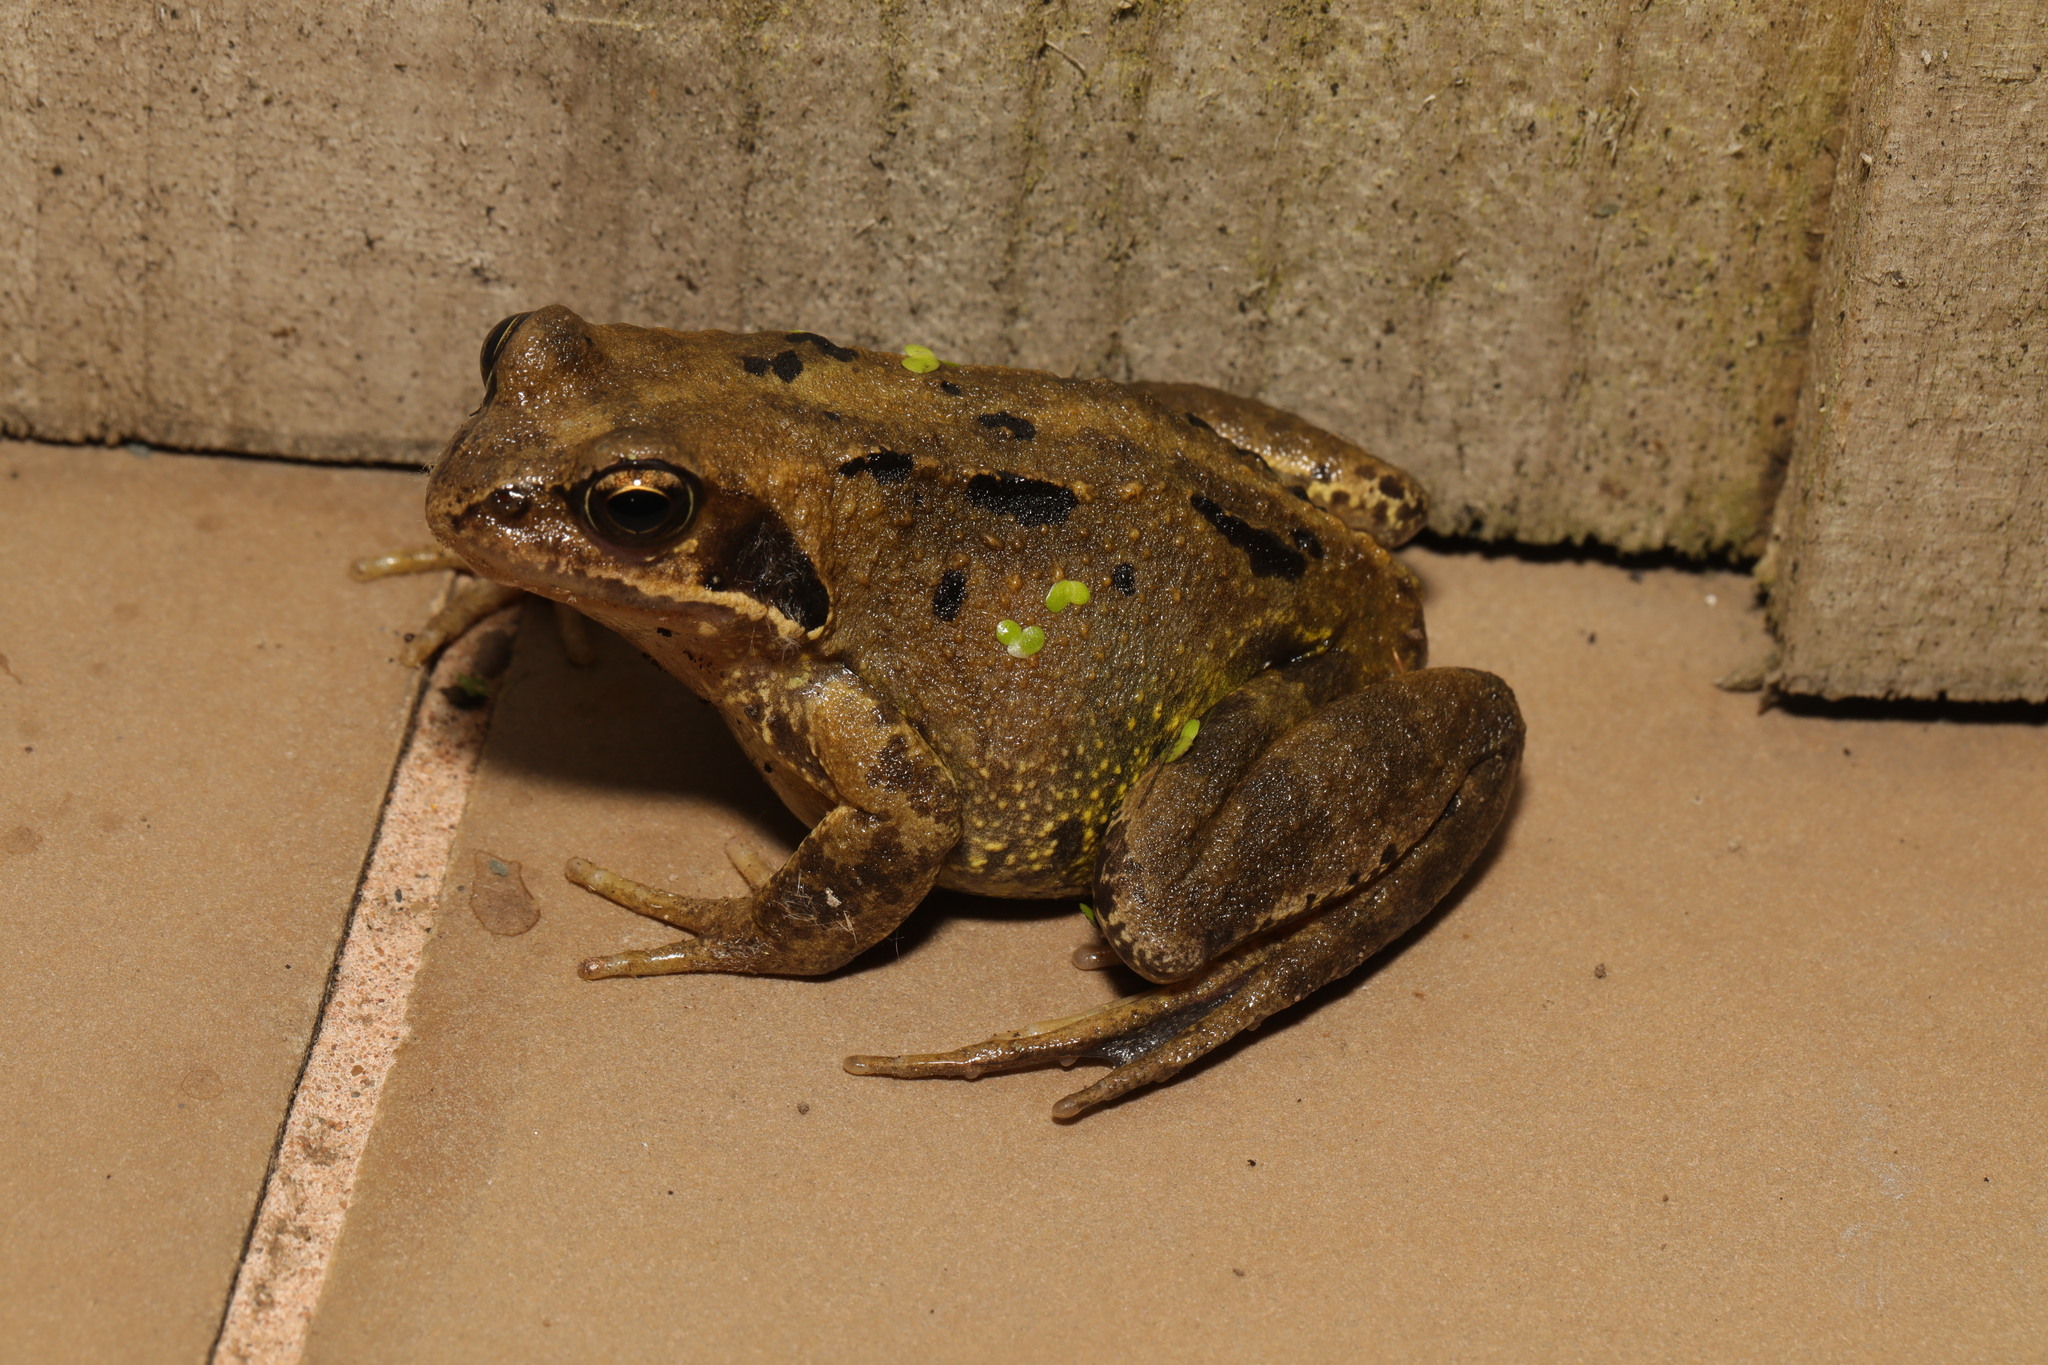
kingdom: Animalia
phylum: Chordata
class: Amphibia
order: Anura
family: Ranidae
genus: Rana
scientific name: Rana temporaria
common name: Common frog
